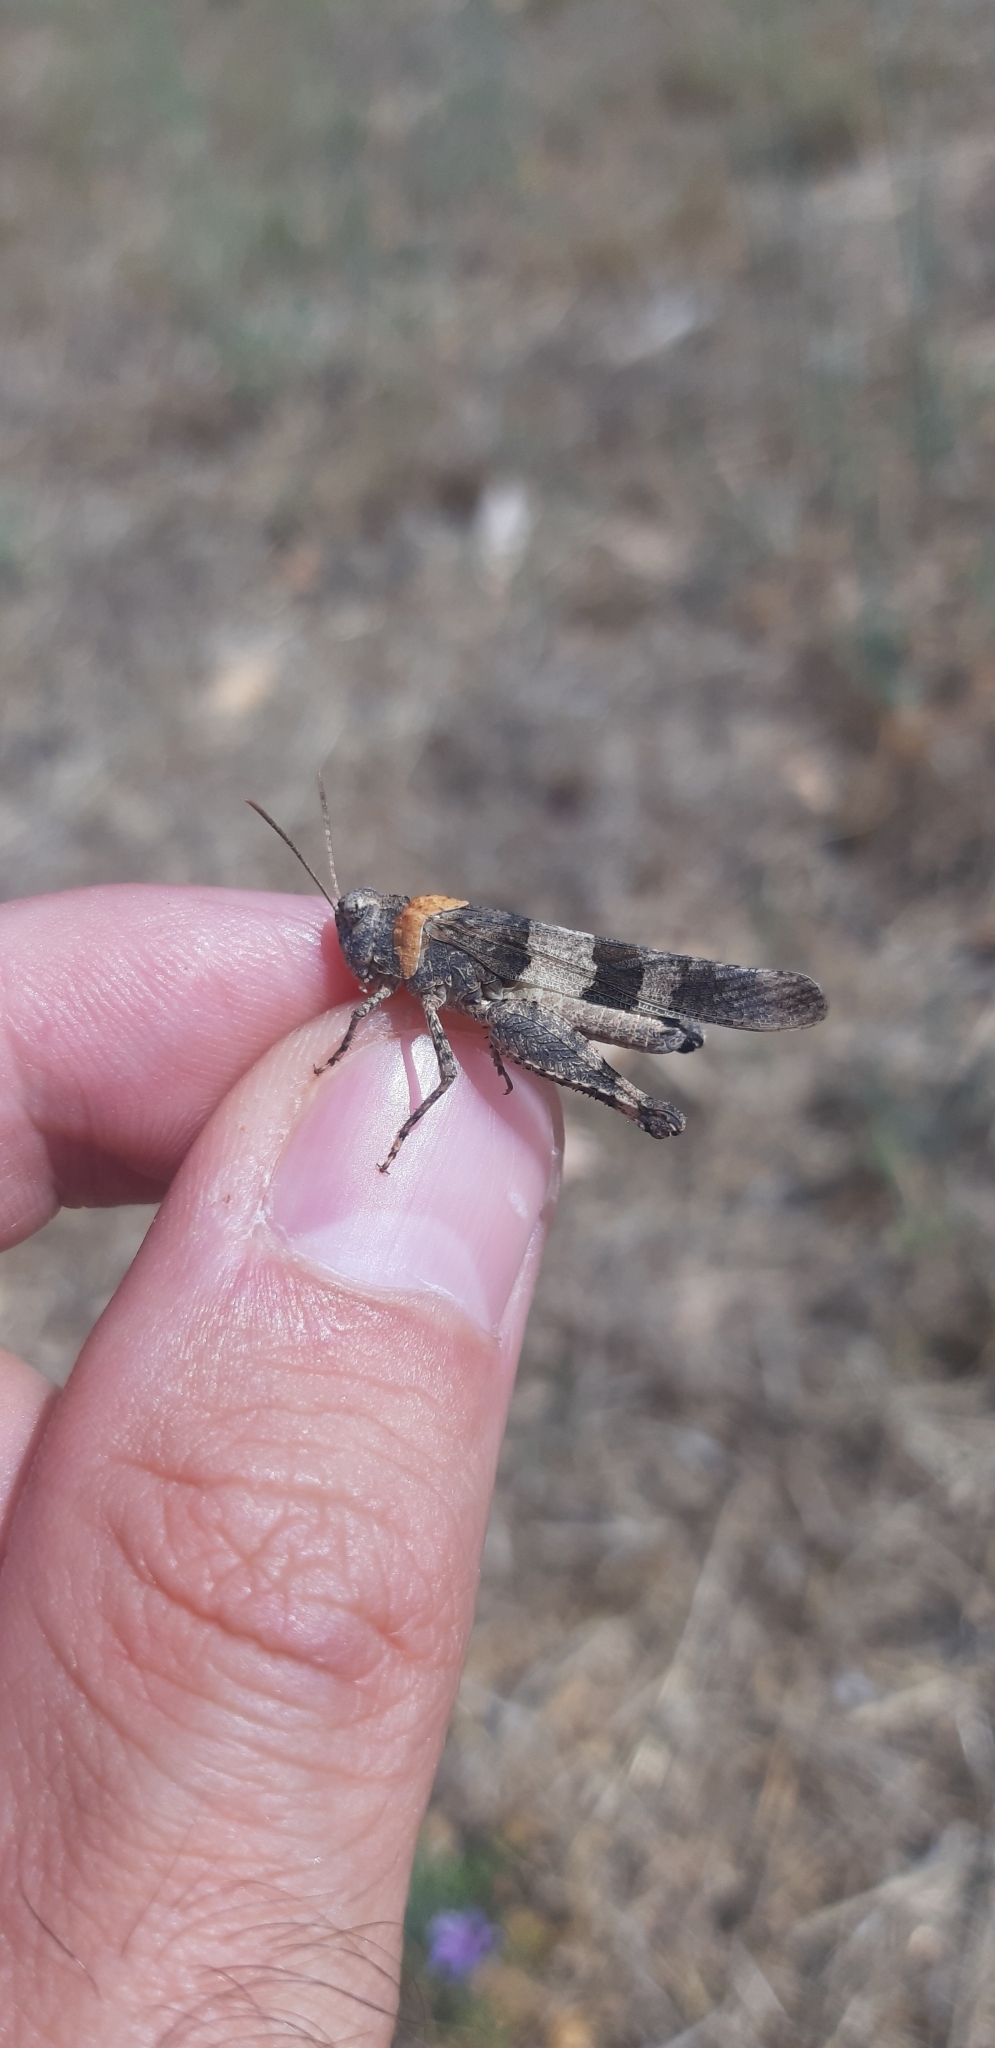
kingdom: Animalia
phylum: Arthropoda
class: Insecta
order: Orthoptera
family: Acrididae
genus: Oedipoda
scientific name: Oedipoda caerulescens
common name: Blue-winged grasshopper
